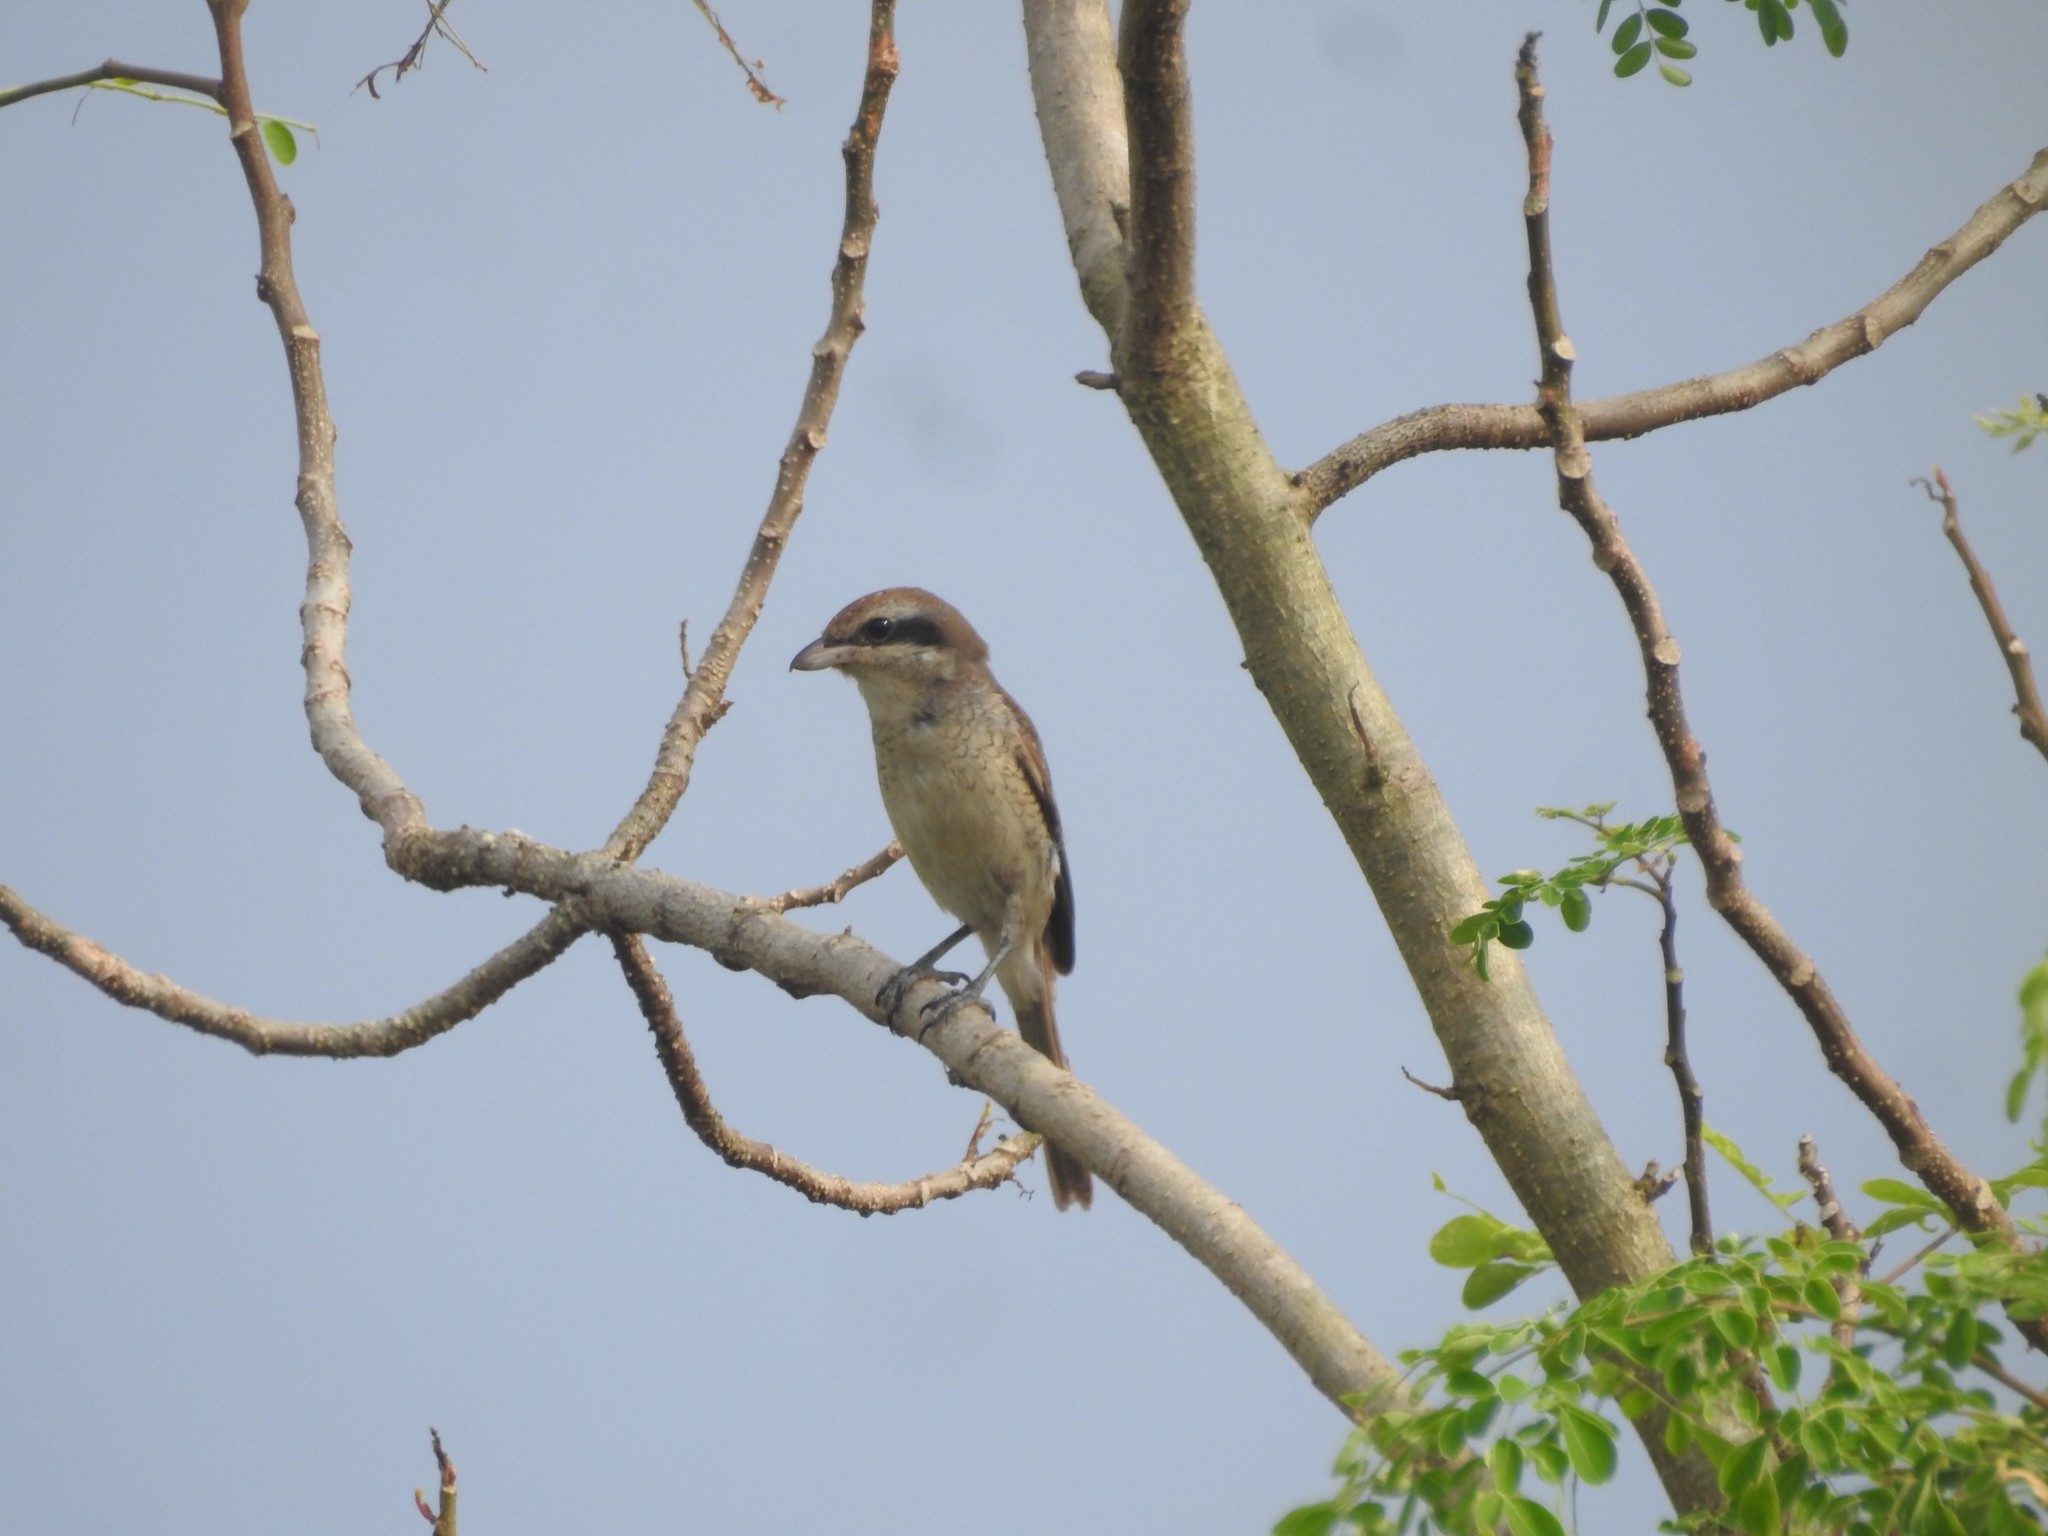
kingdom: Animalia
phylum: Chordata
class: Aves
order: Passeriformes
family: Laniidae
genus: Lanius
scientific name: Lanius cristatus
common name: Brown shrike
